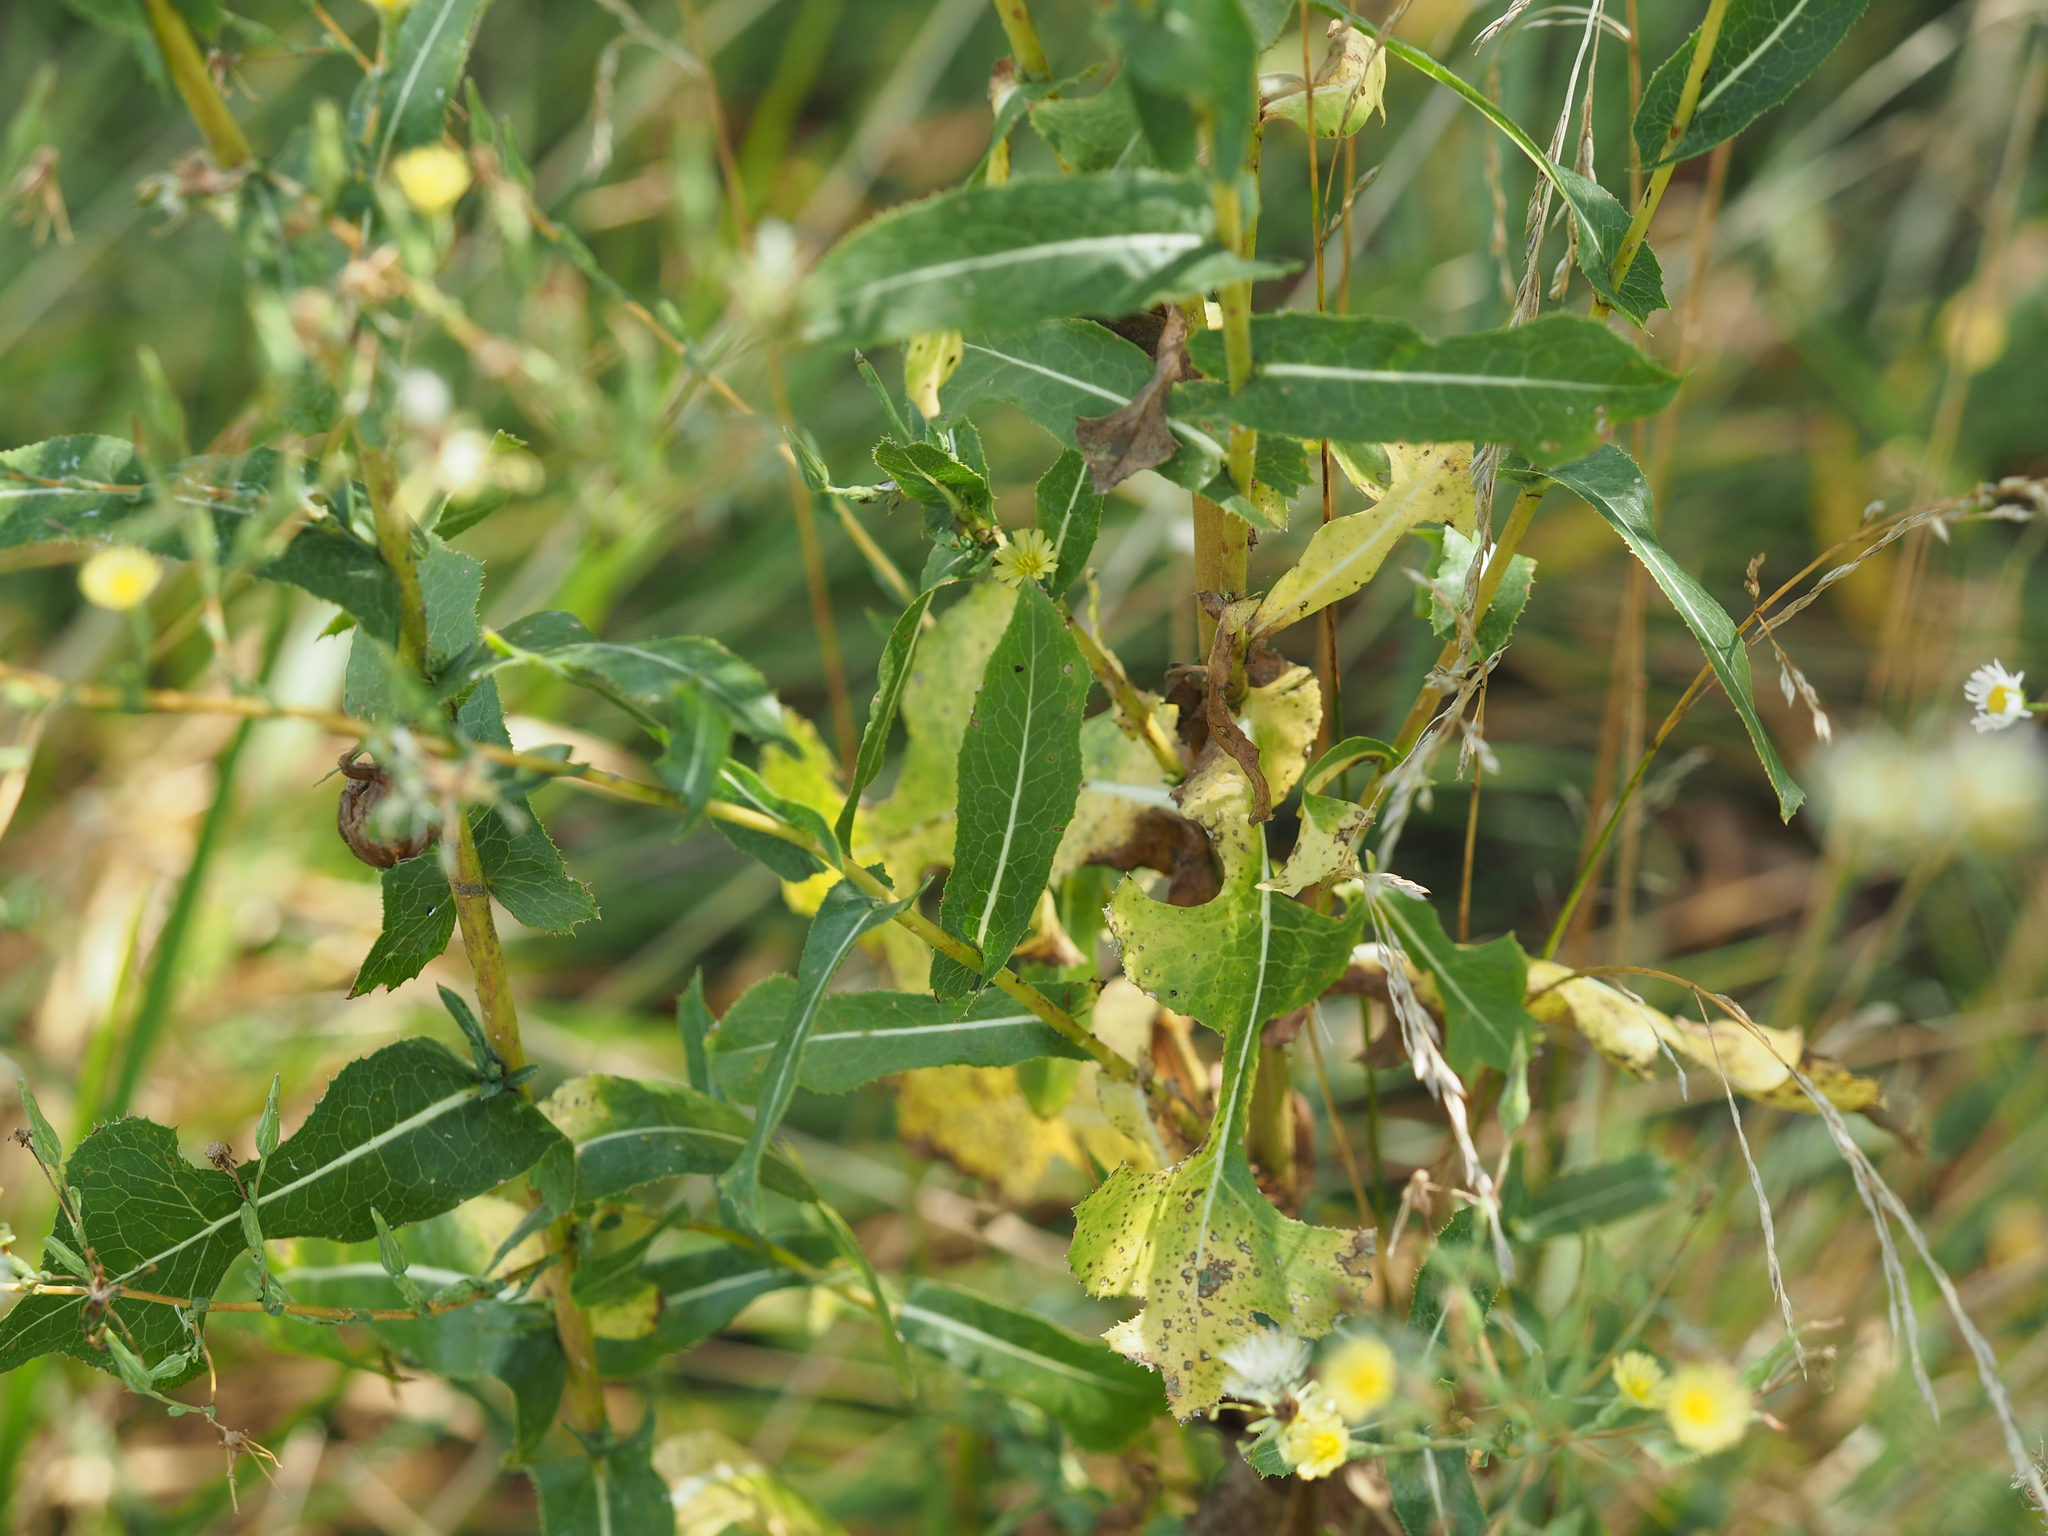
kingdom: Plantae
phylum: Tracheophyta
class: Magnoliopsida
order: Asterales
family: Asteraceae
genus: Lactuca
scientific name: Lactuca serriola
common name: Prickly lettuce
